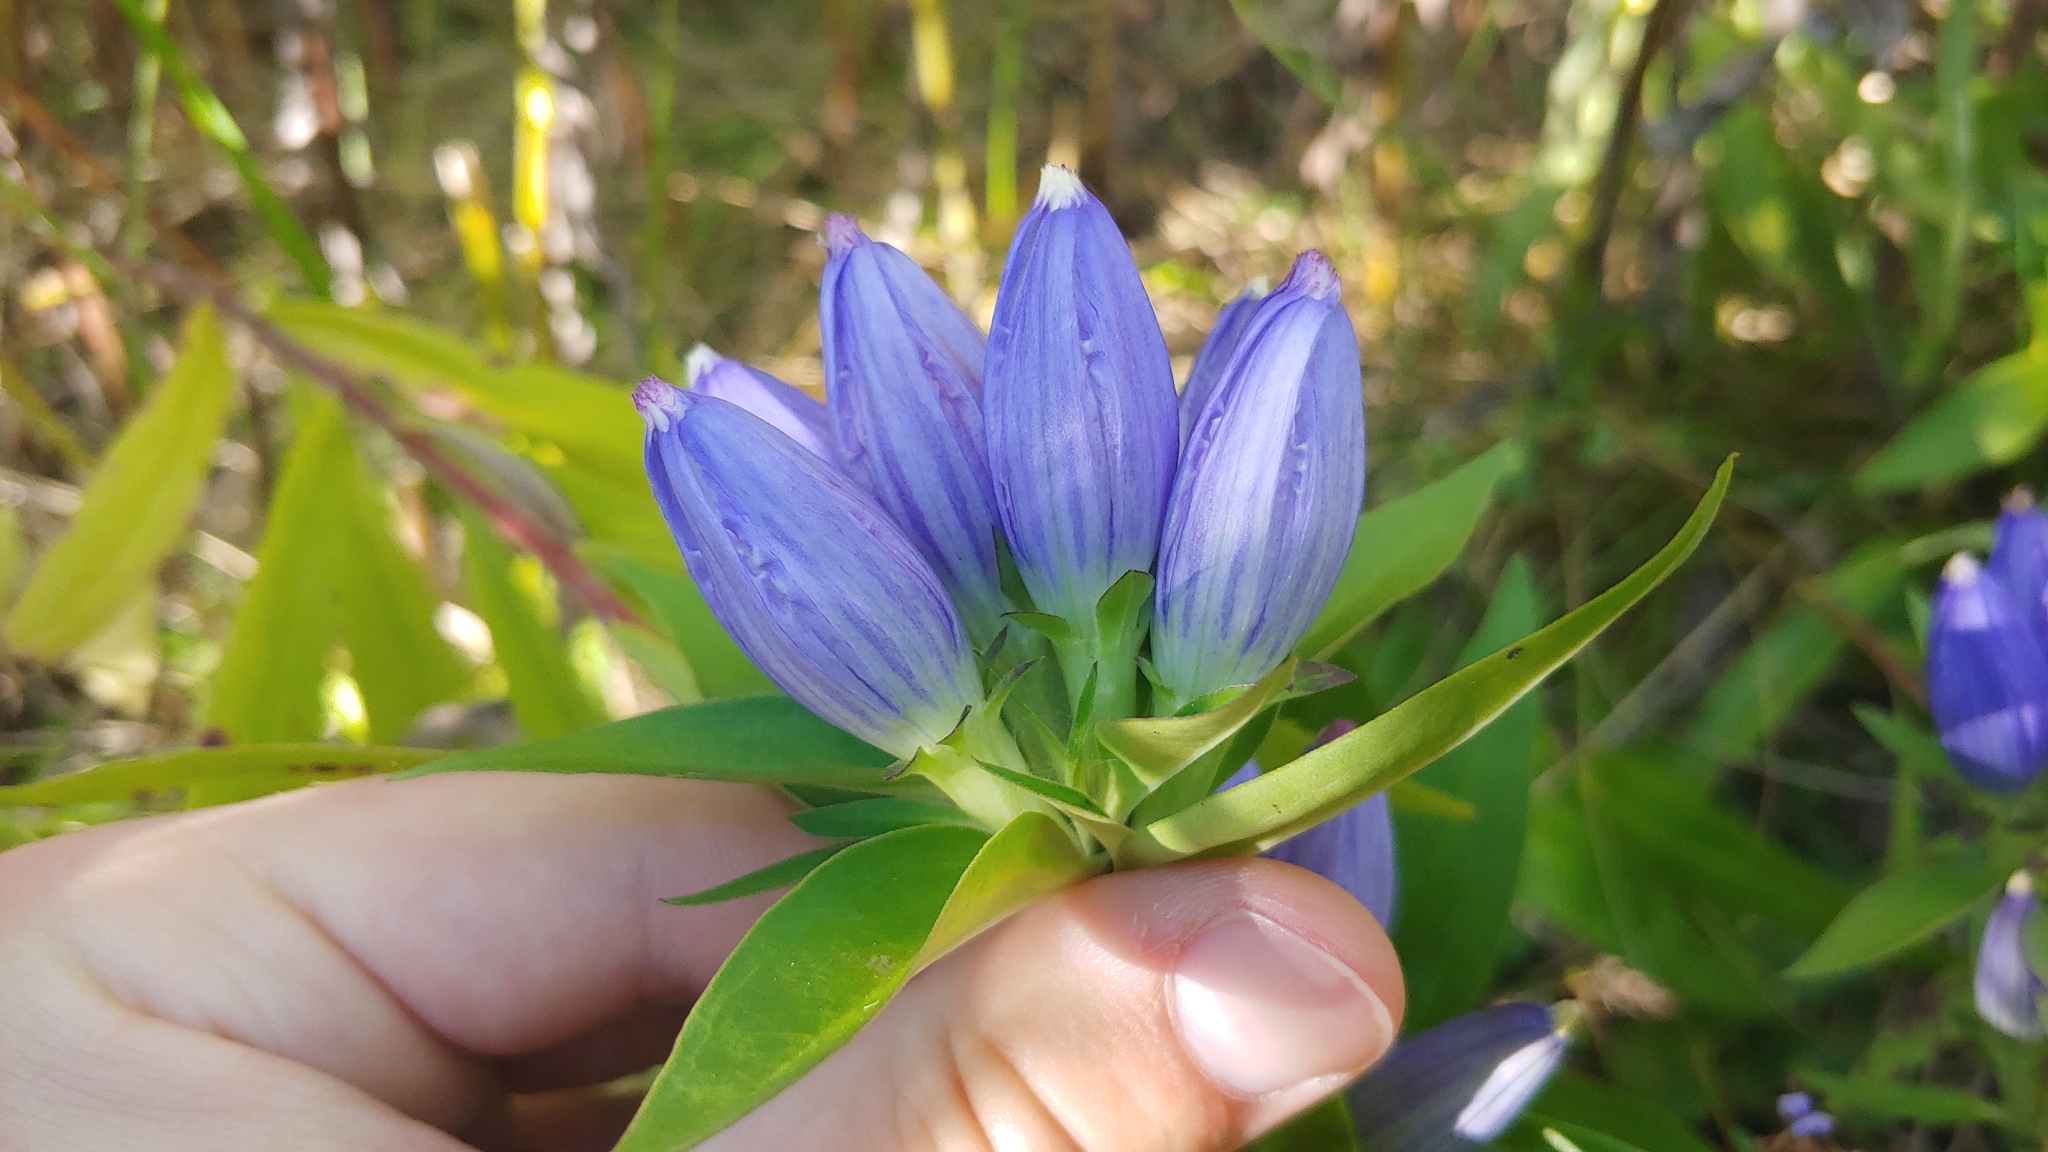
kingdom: Plantae
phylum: Tracheophyta
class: Magnoliopsida
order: Gentianales
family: Gentianaceae
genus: Gentiana
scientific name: Gentiana andrewsii
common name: Bottle gentian
